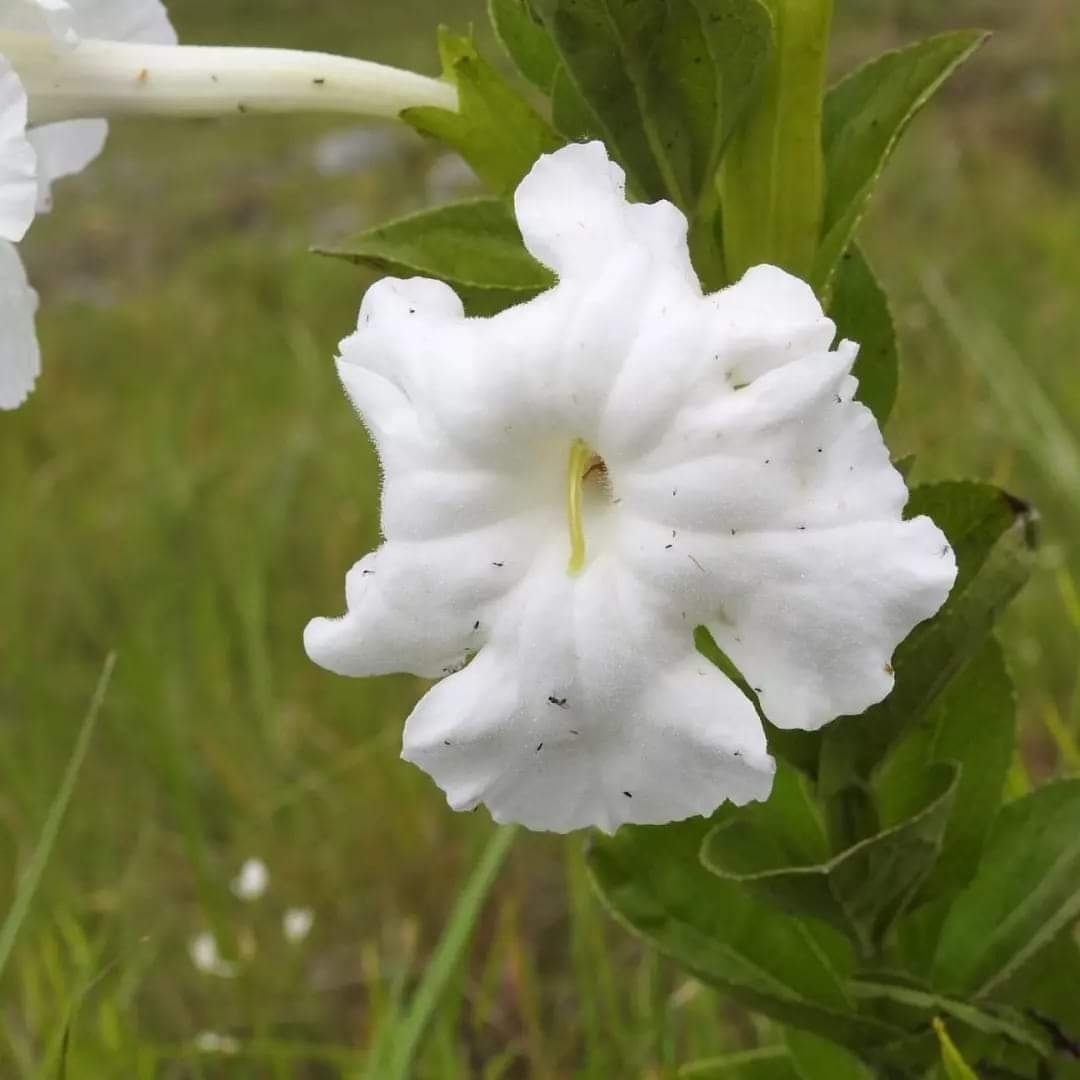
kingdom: Plantae
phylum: Tracheophyta
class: Magnoliopsida
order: Lamiales
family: Orobanchaceae
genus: Escobedia
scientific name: Escobedia grandiflora
